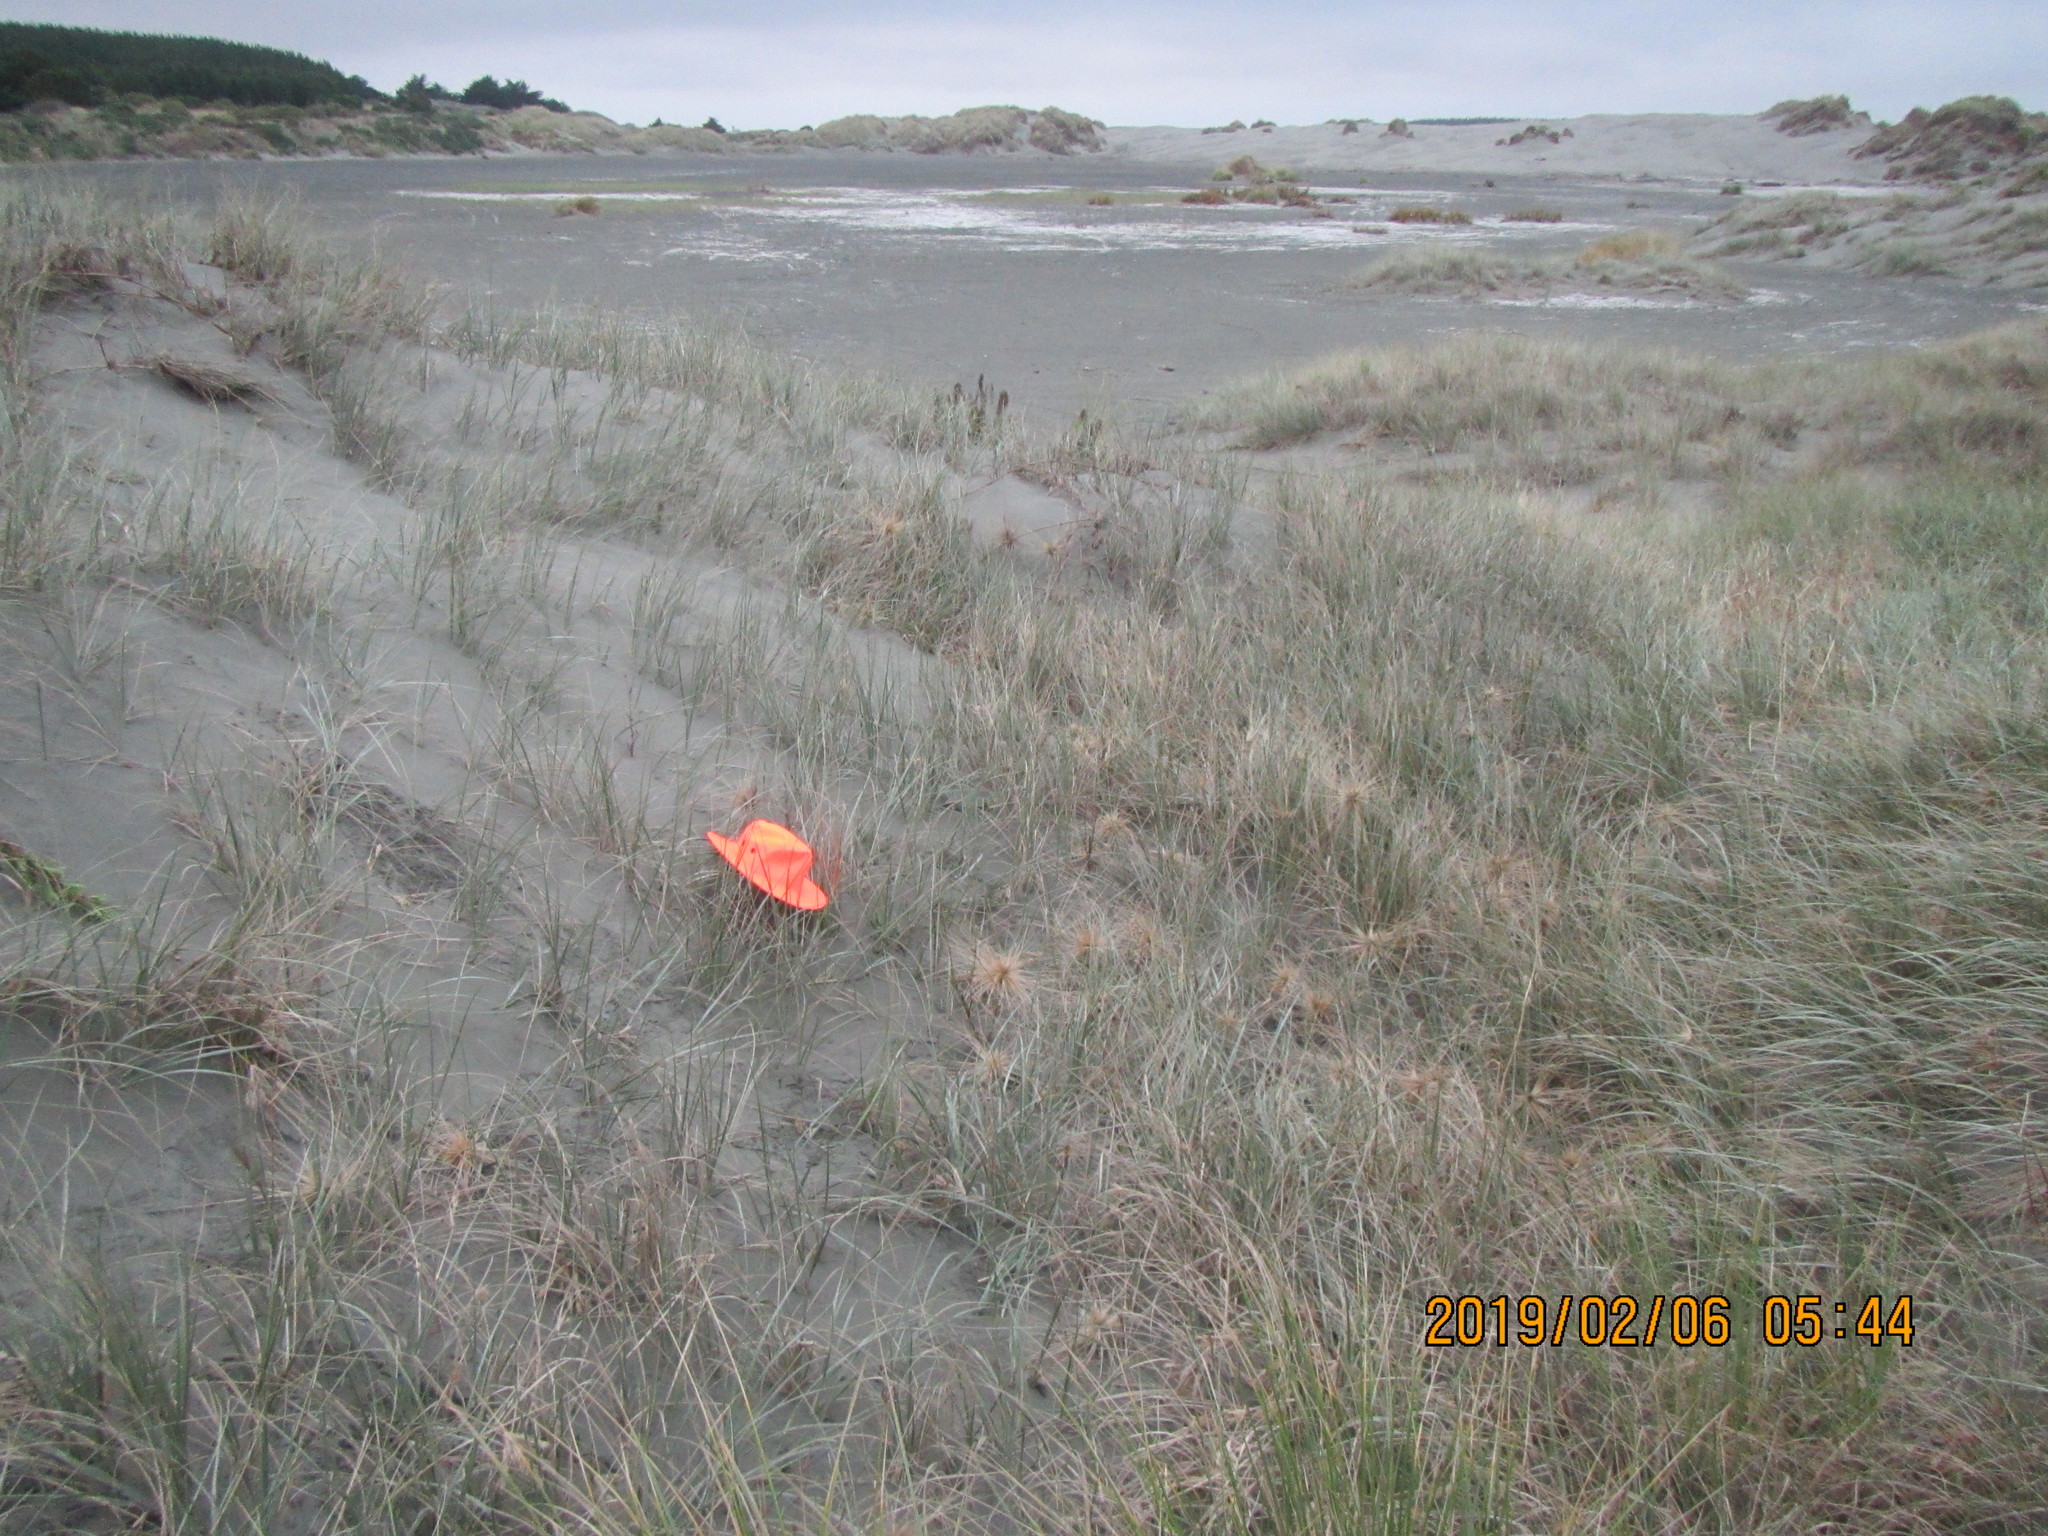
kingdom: Plantae
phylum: Tracheophyta
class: Magnoliopsida
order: Malvales
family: Thymelaeaceae
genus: Pimelea
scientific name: Pimelea villosa
